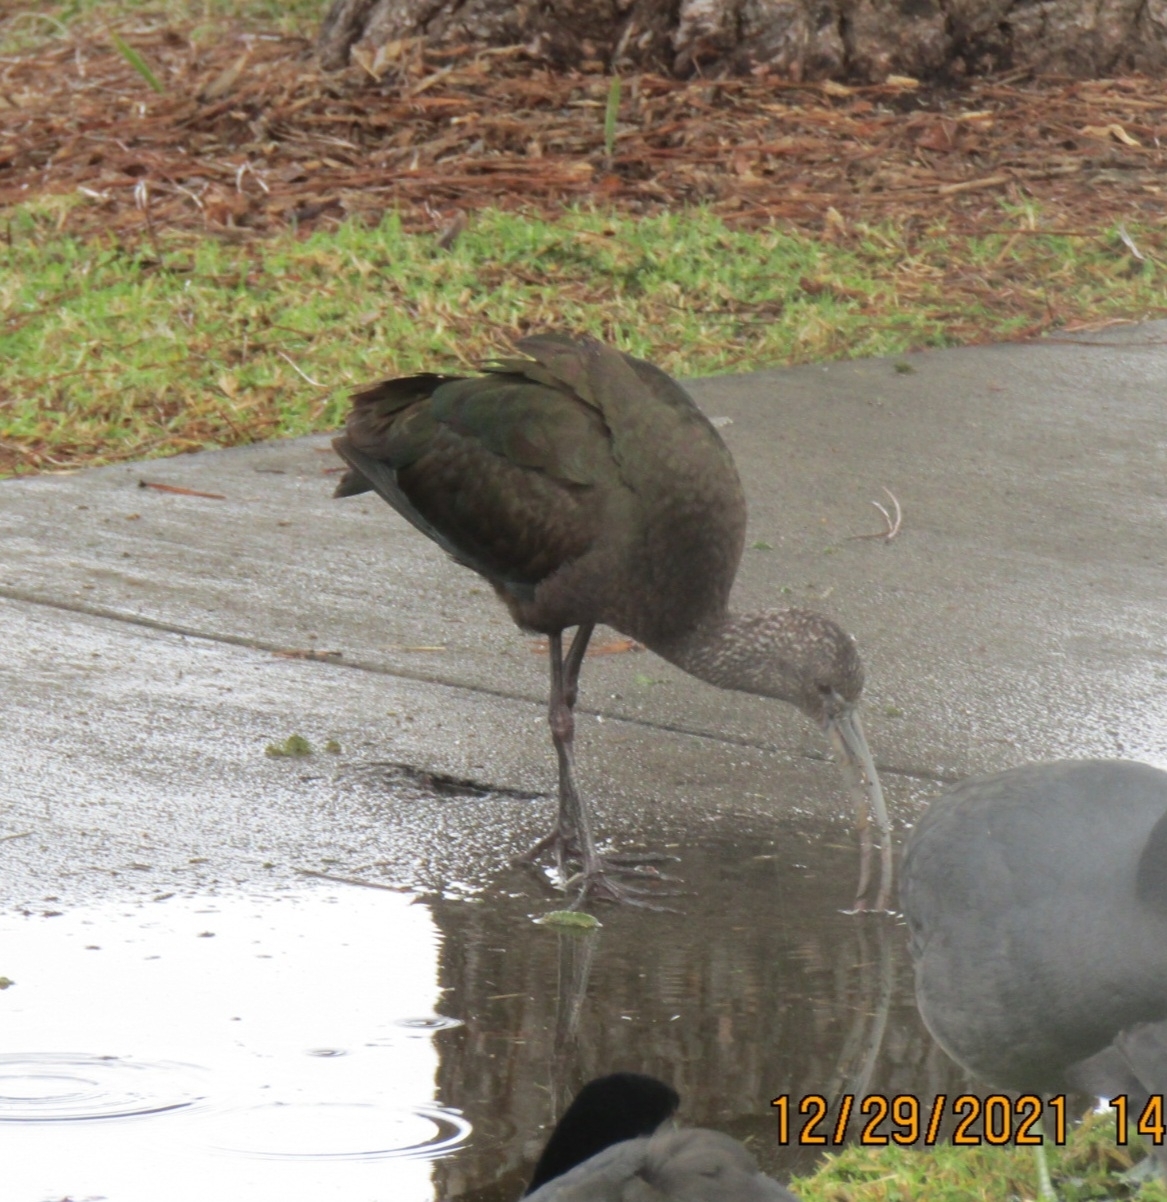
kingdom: Animalia
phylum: Chordata
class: Aves
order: Pelecaniformes
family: Threskiornithidae
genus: Plegadis
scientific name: Plegadis chihi
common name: White-faced ibis
